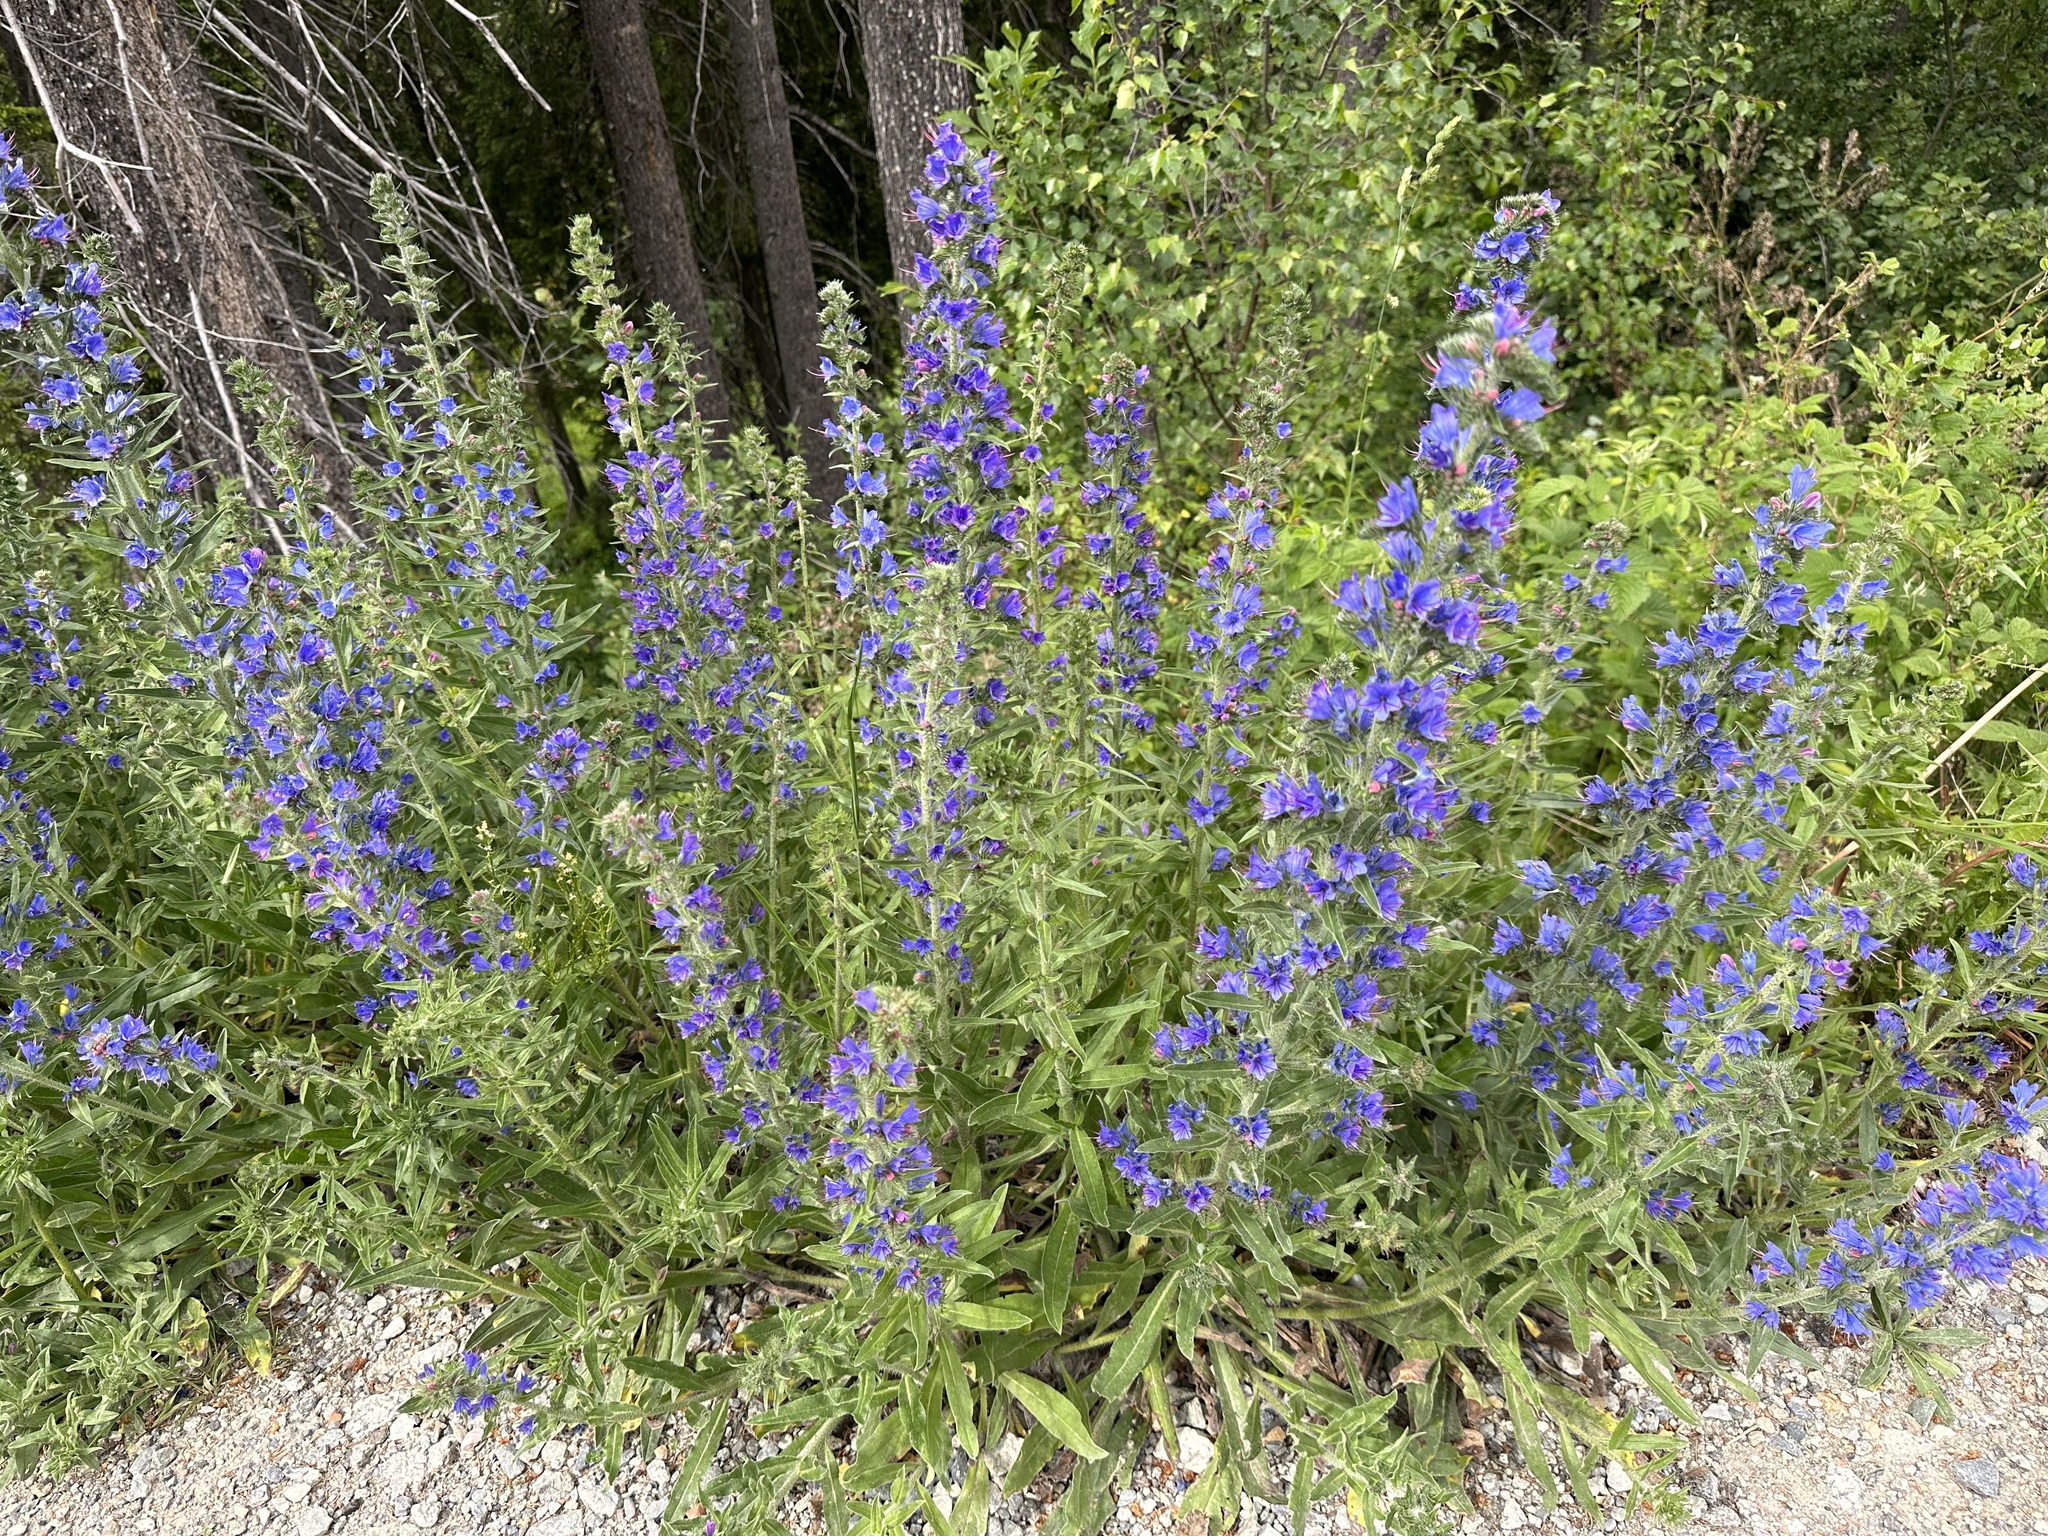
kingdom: Plantae
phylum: Tracheophyta
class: Magnoliopsida
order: Boraginales
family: Boraginaceae
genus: Echium
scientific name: Echium vulgare
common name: Common viper's bugloss
